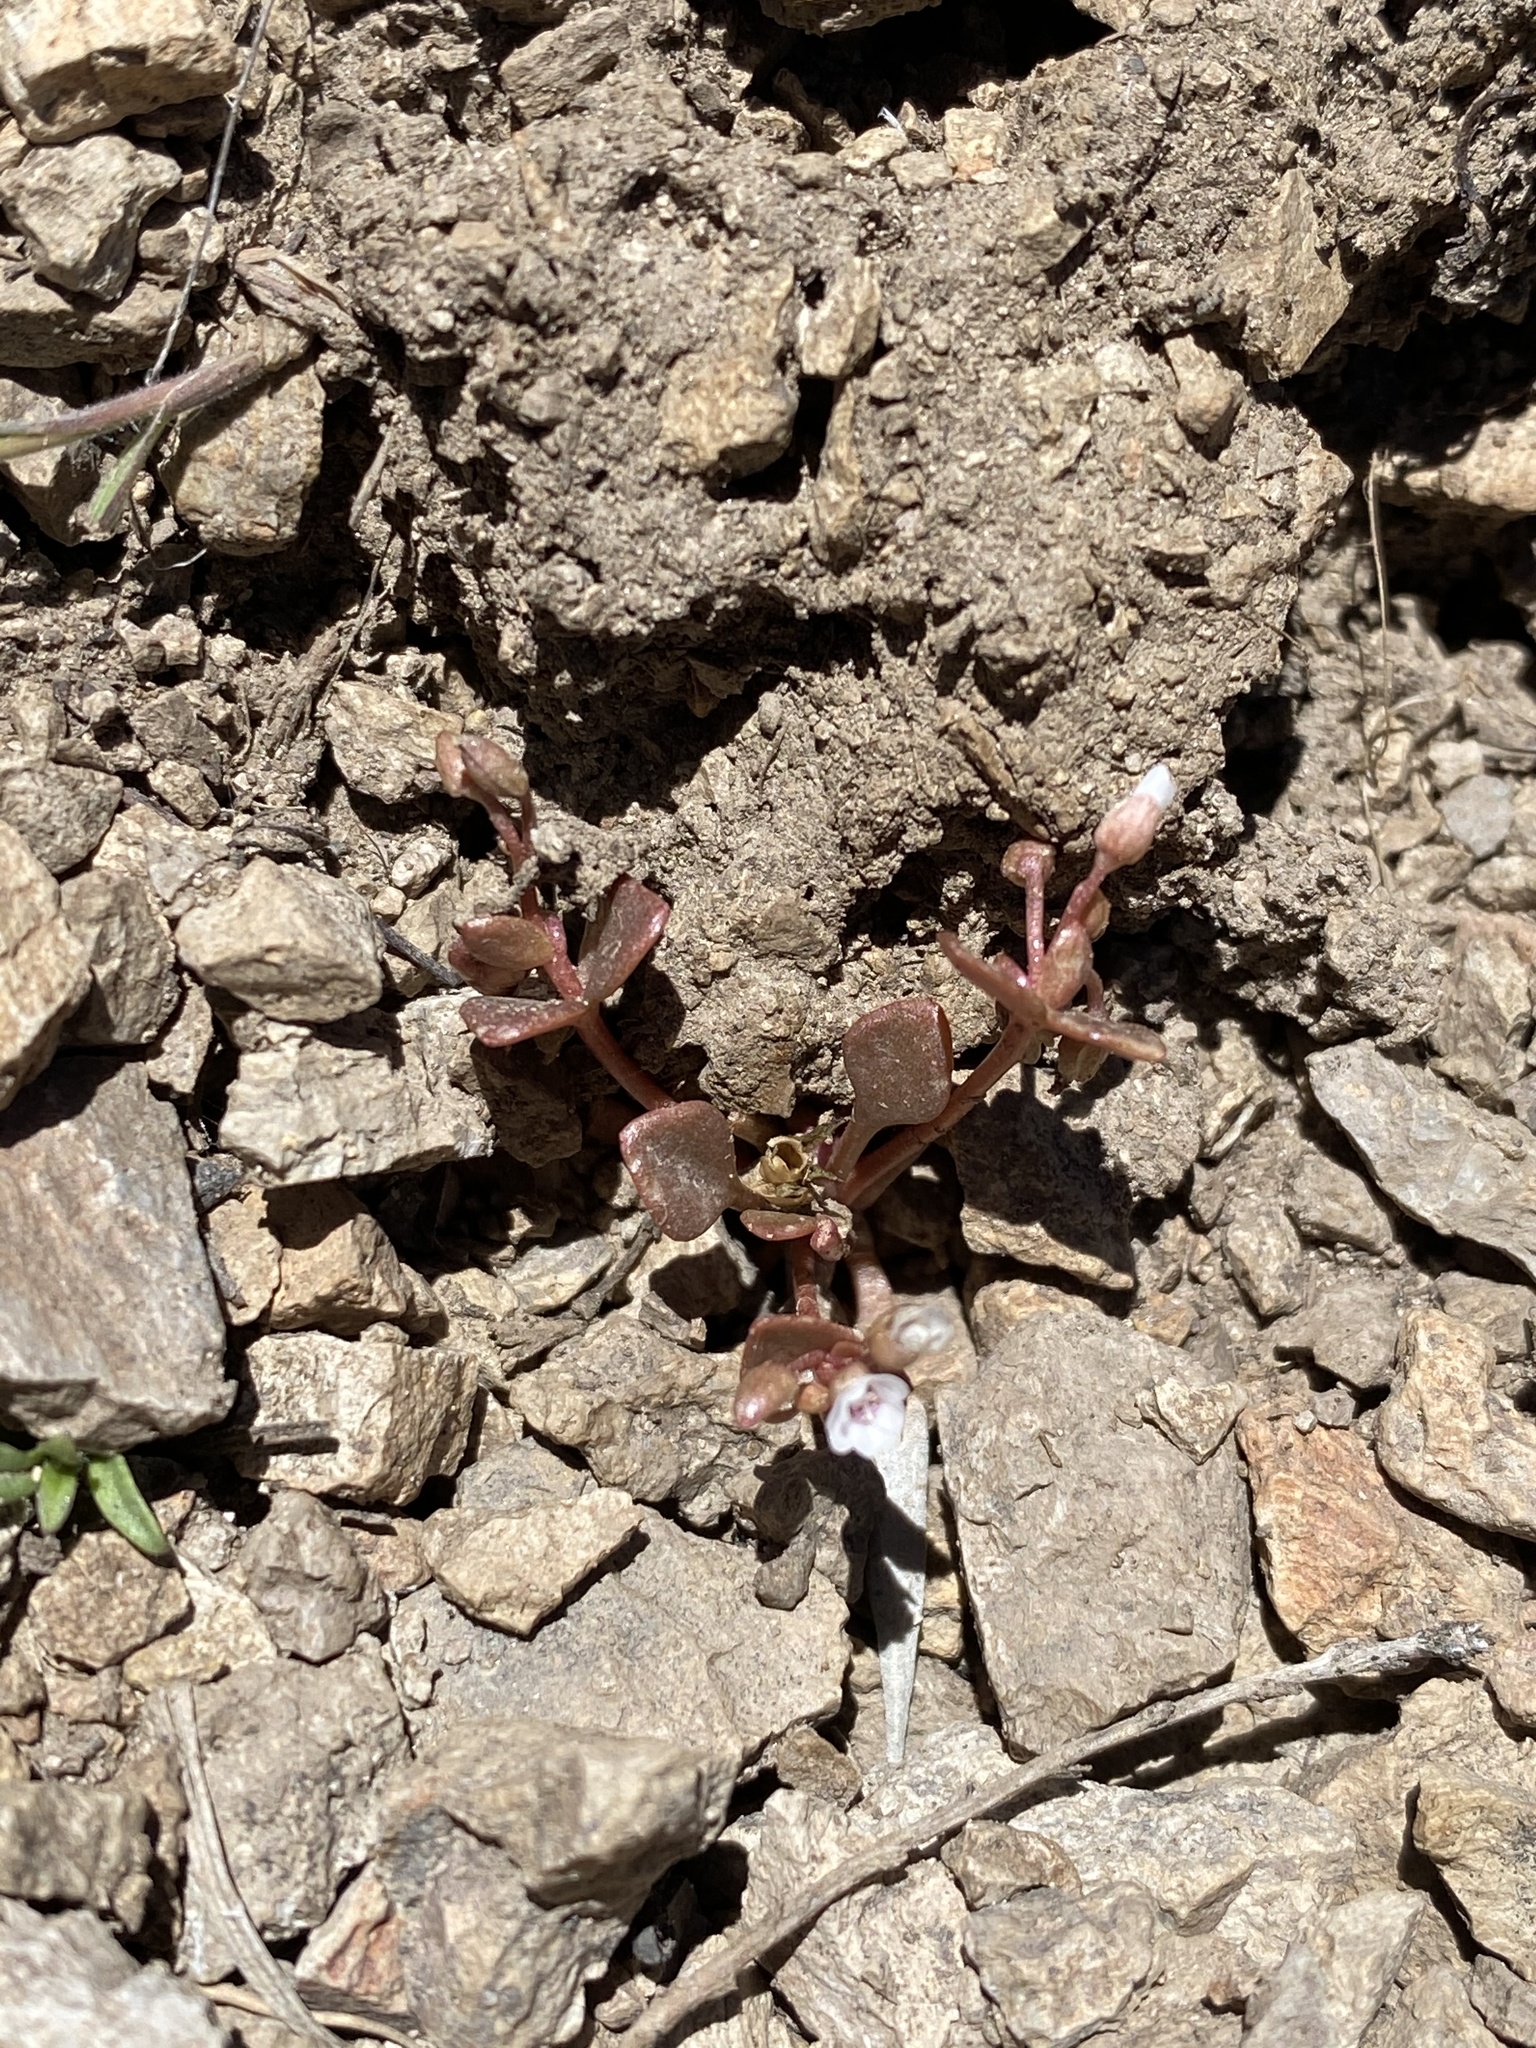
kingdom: Plantae
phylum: Tracheophyta
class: Magnoliopsida
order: Caryophyllales
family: Montiaceae
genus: Claytonia
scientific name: Claytonia rubra
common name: Erubescent miner's-lettuce
